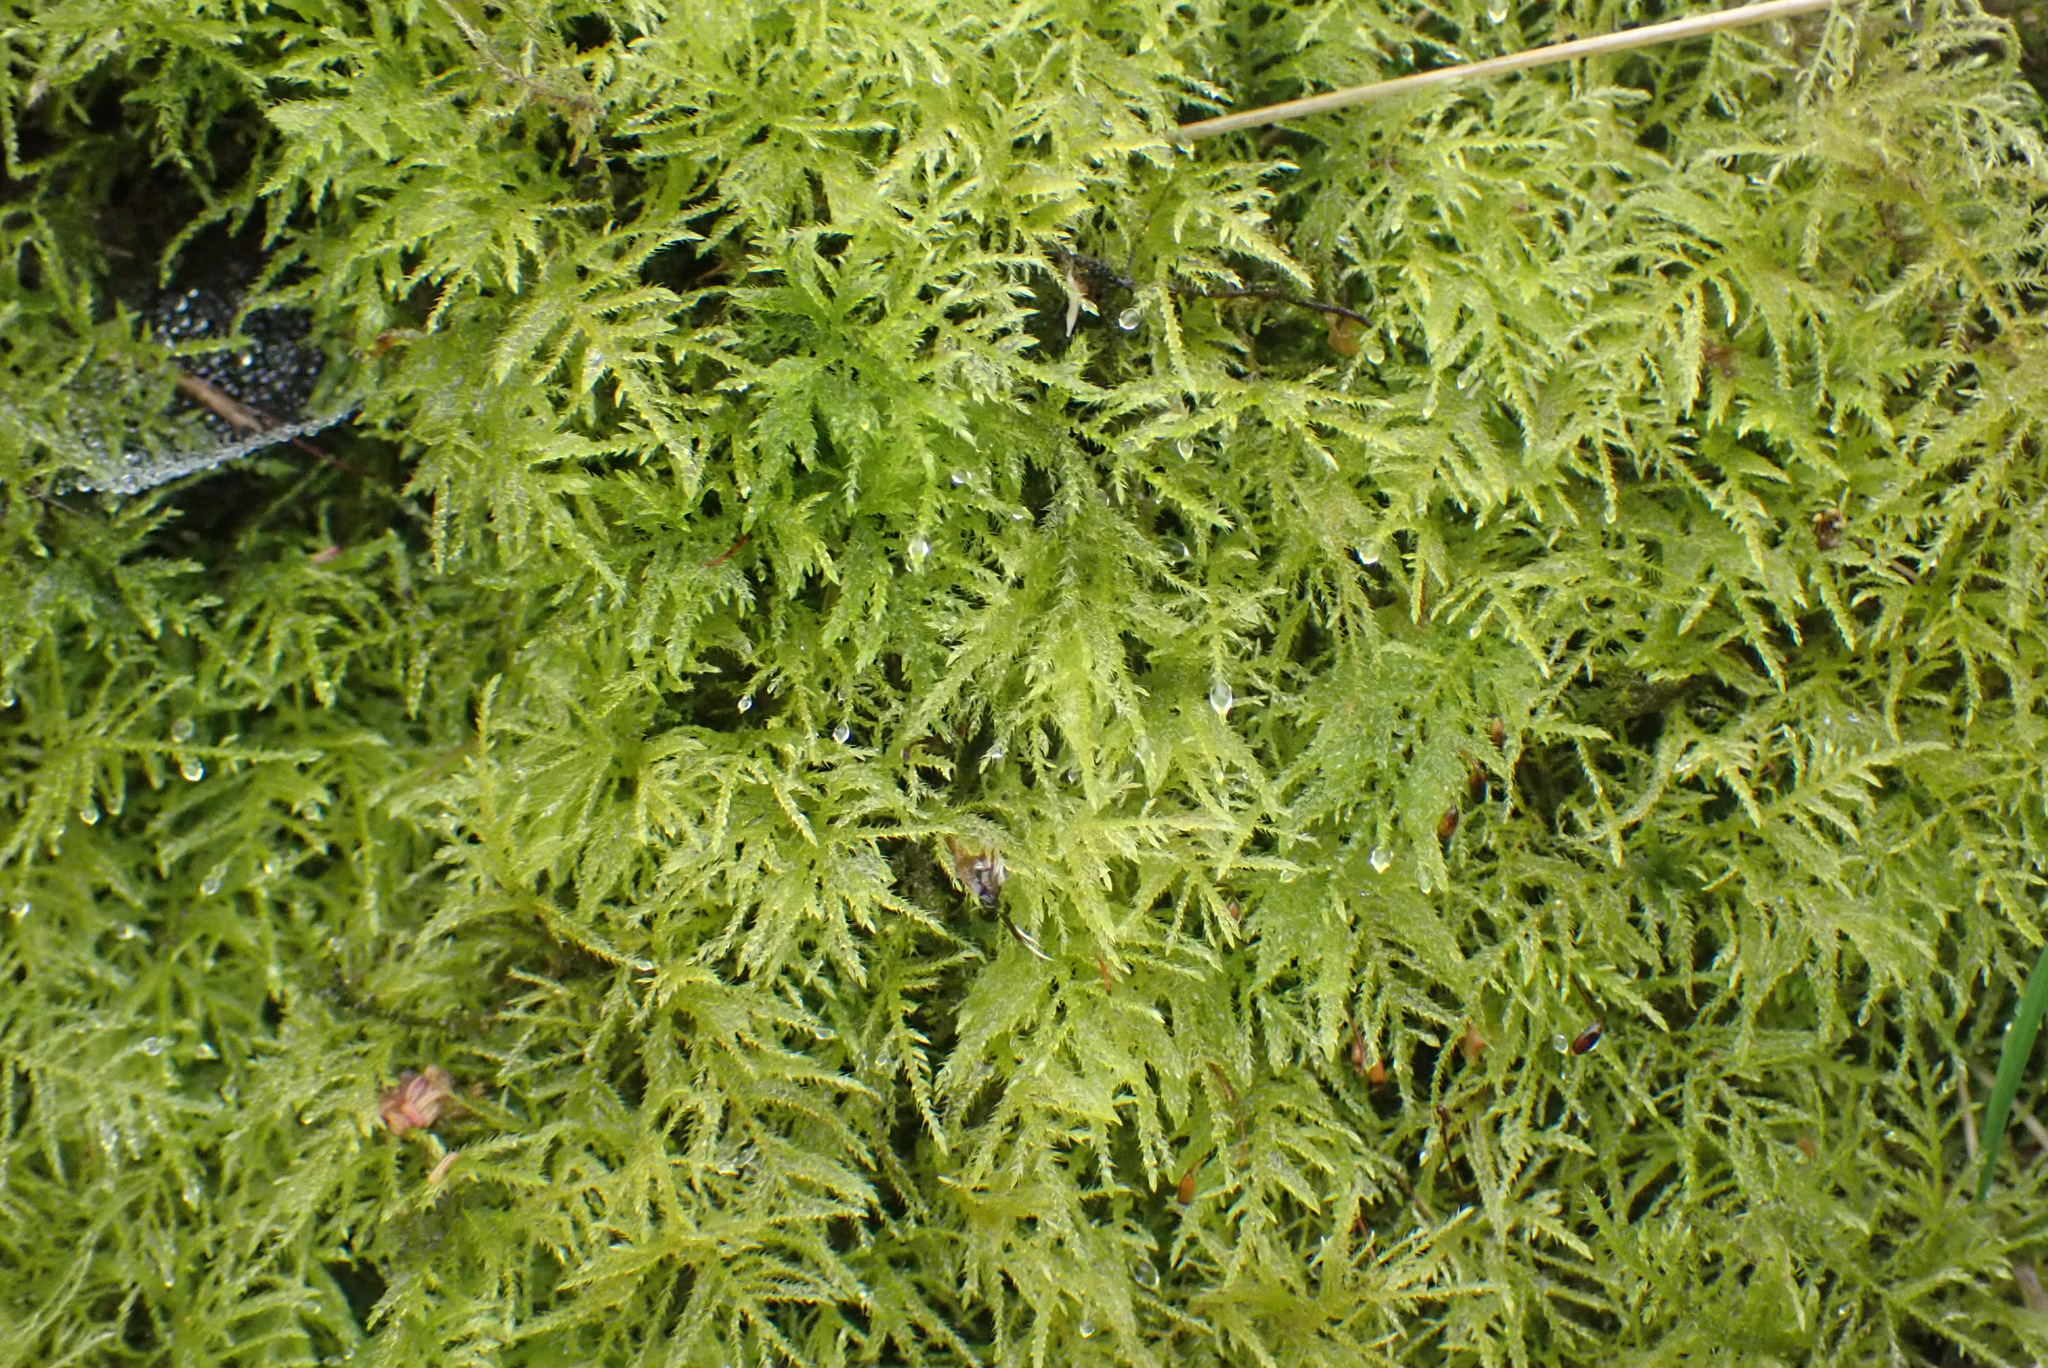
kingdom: Plantae
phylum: Bryophyta
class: Bryopsida
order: Hypnales
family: Brachytheciaceae
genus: Kindbergia
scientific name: Kindbergia praelonga
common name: Slender beaked moss
